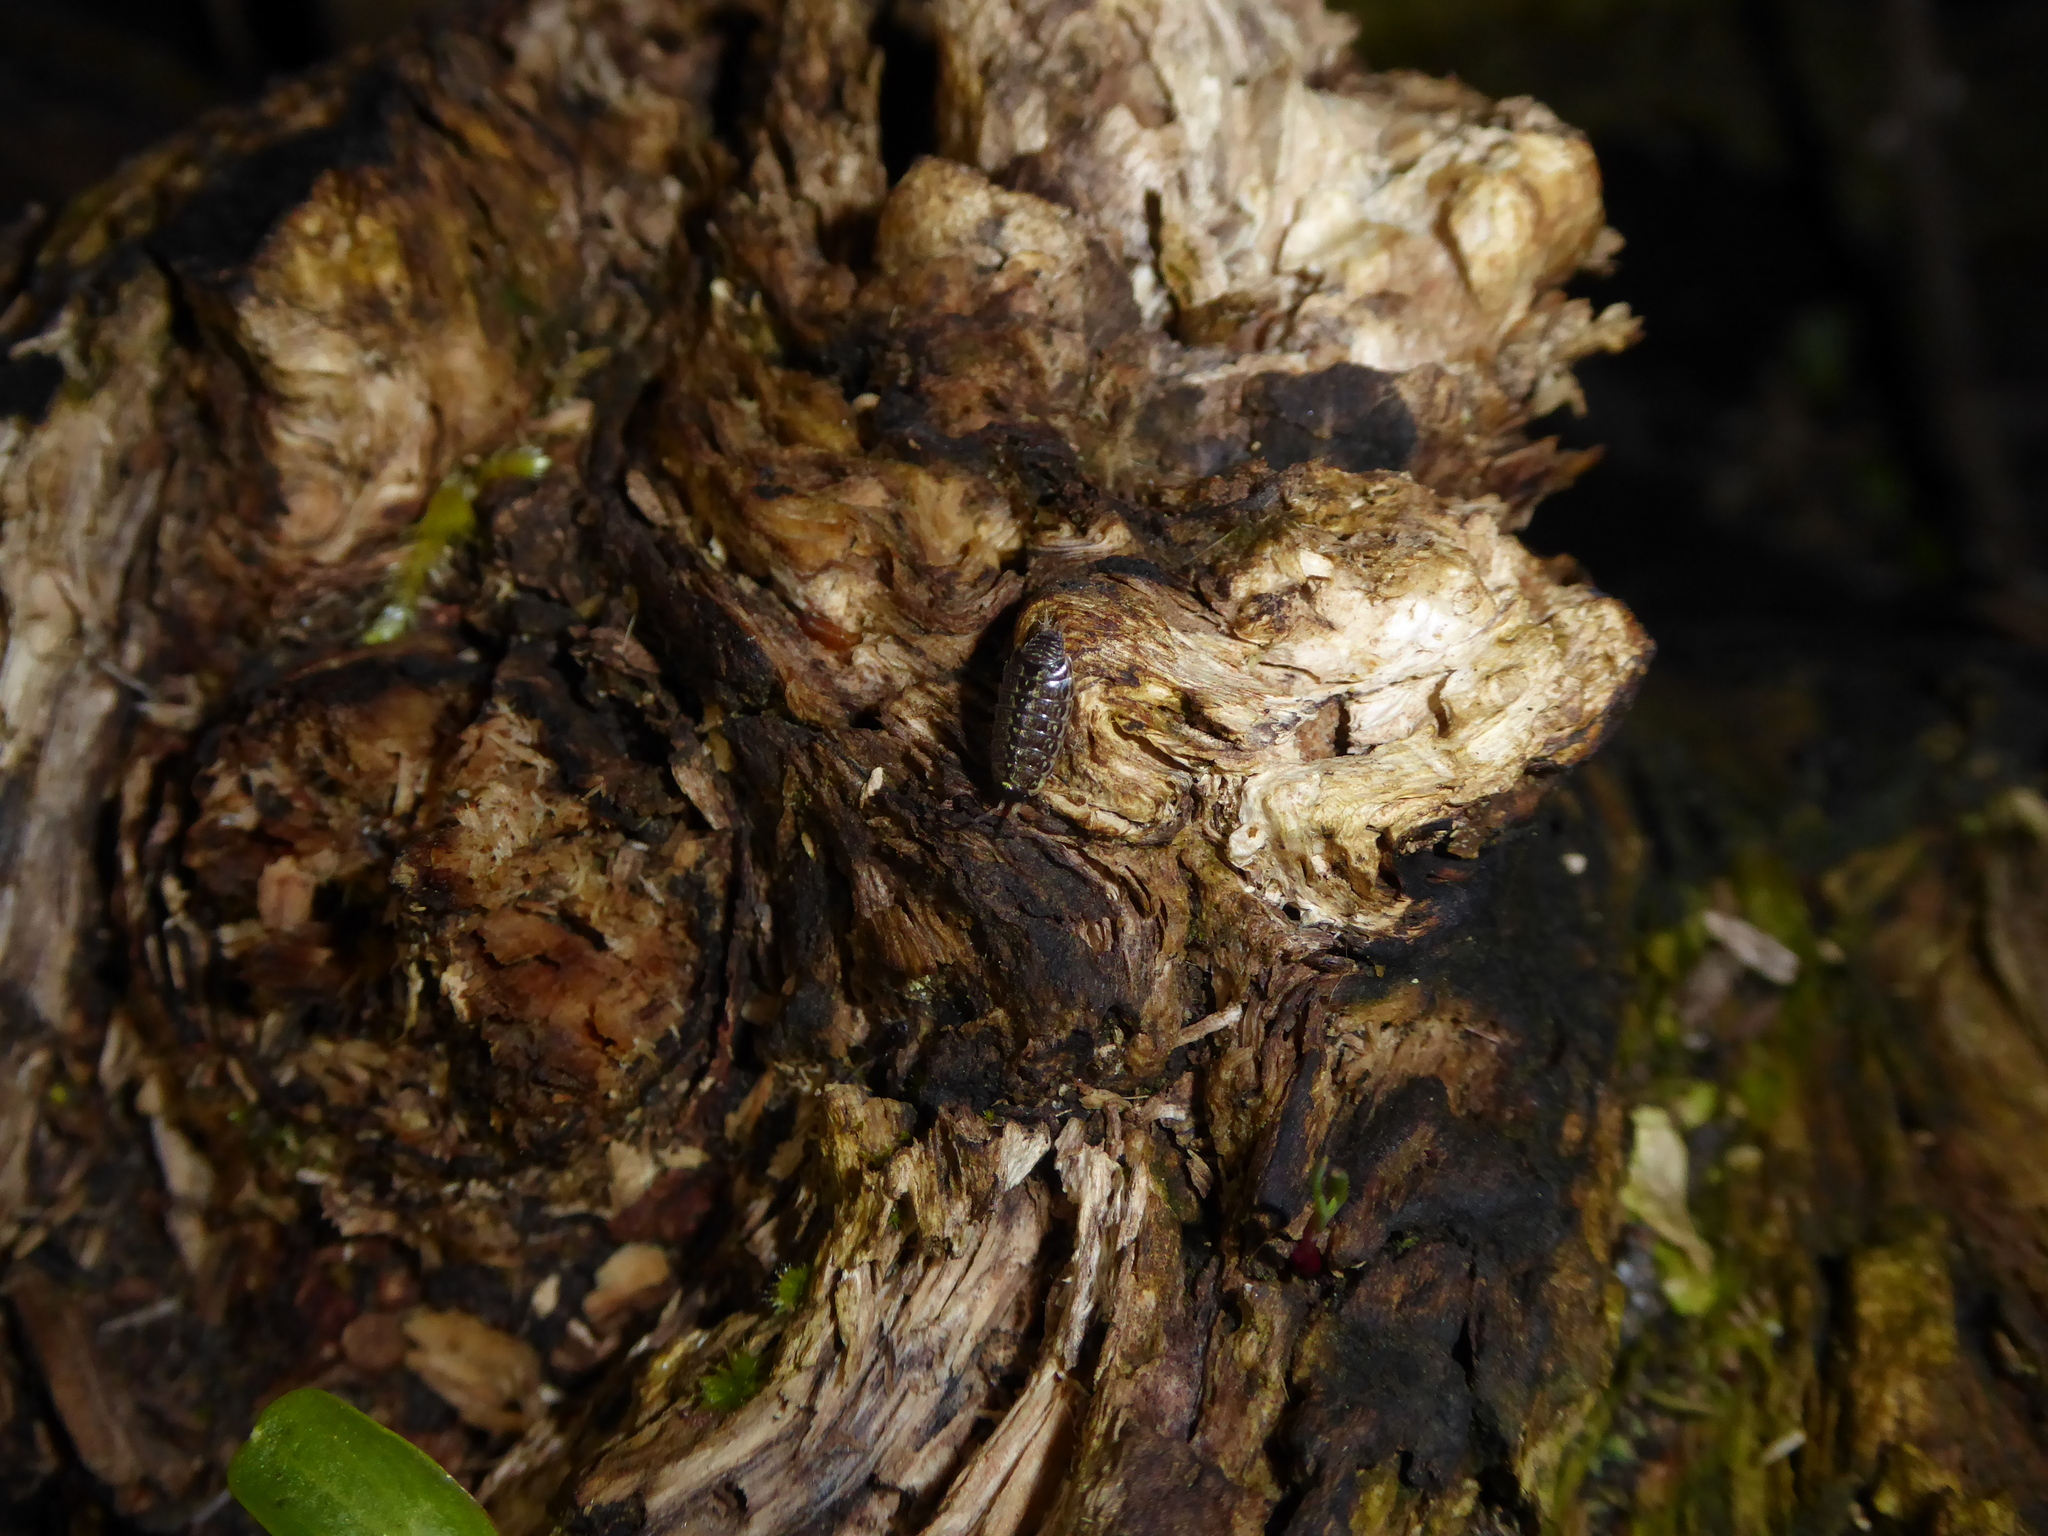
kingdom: Animalia
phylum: Arthropoda
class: Malacostraca
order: Isopoda
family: Philosciidae
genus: Philoscia
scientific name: Philoscia muscorum
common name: Common striped woodlouse
